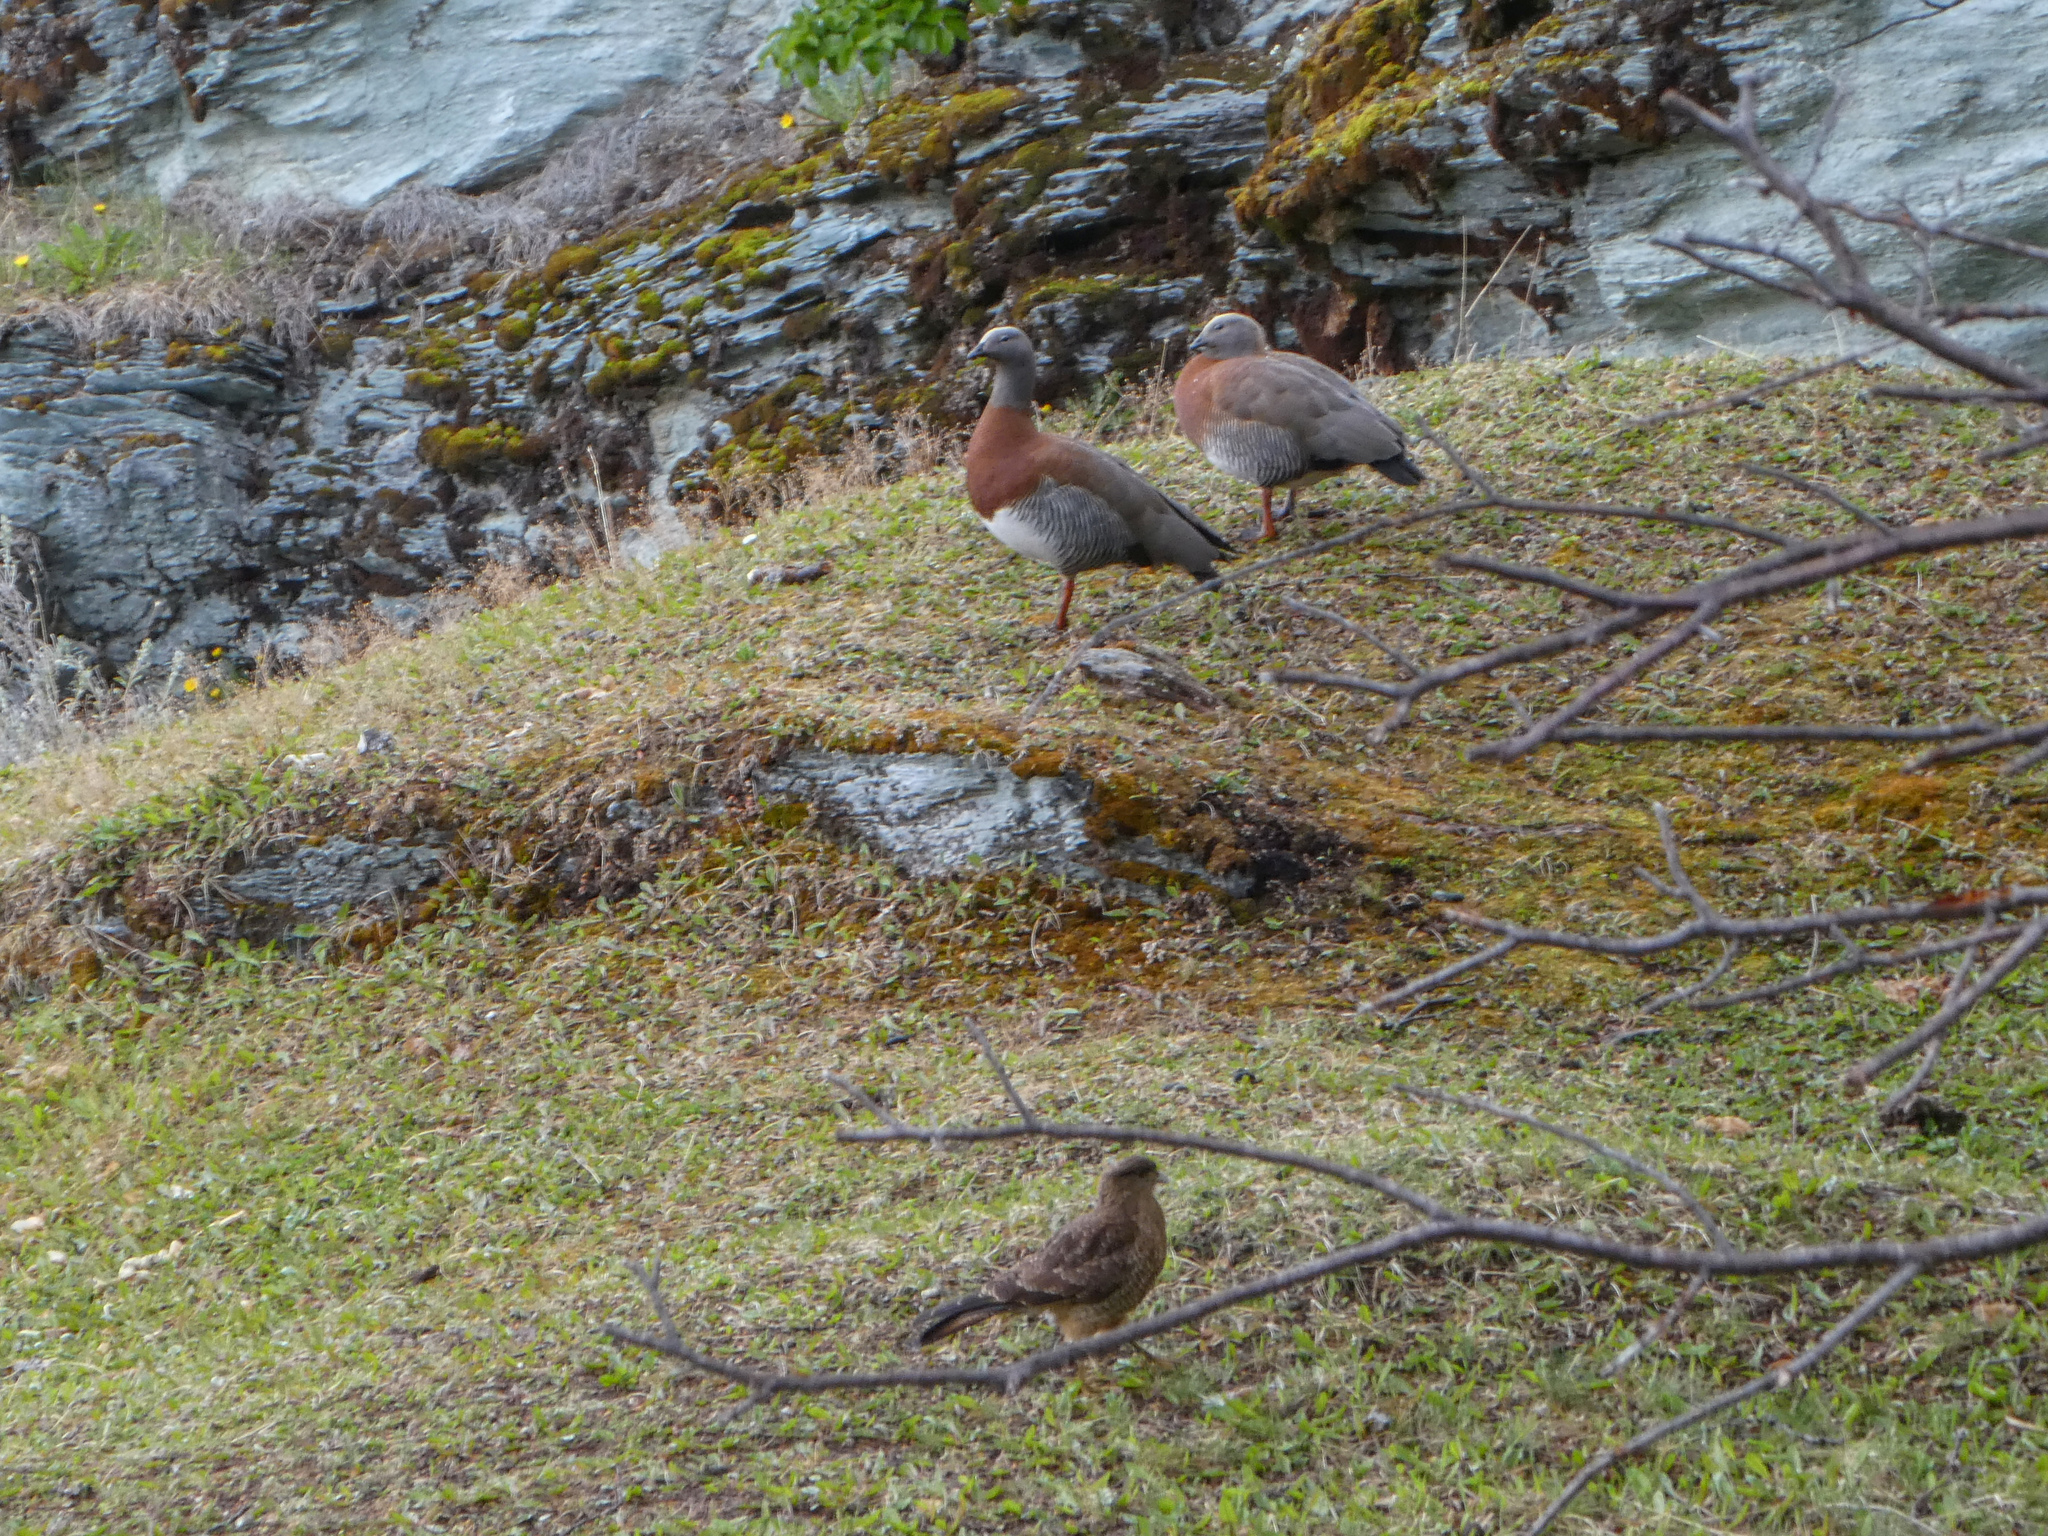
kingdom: Animalia
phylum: Chordata
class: Aves
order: Anseriformes
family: Anatidae
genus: Chloephaga
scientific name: Chloephaga poliocephala
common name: Ashy-headed goose
